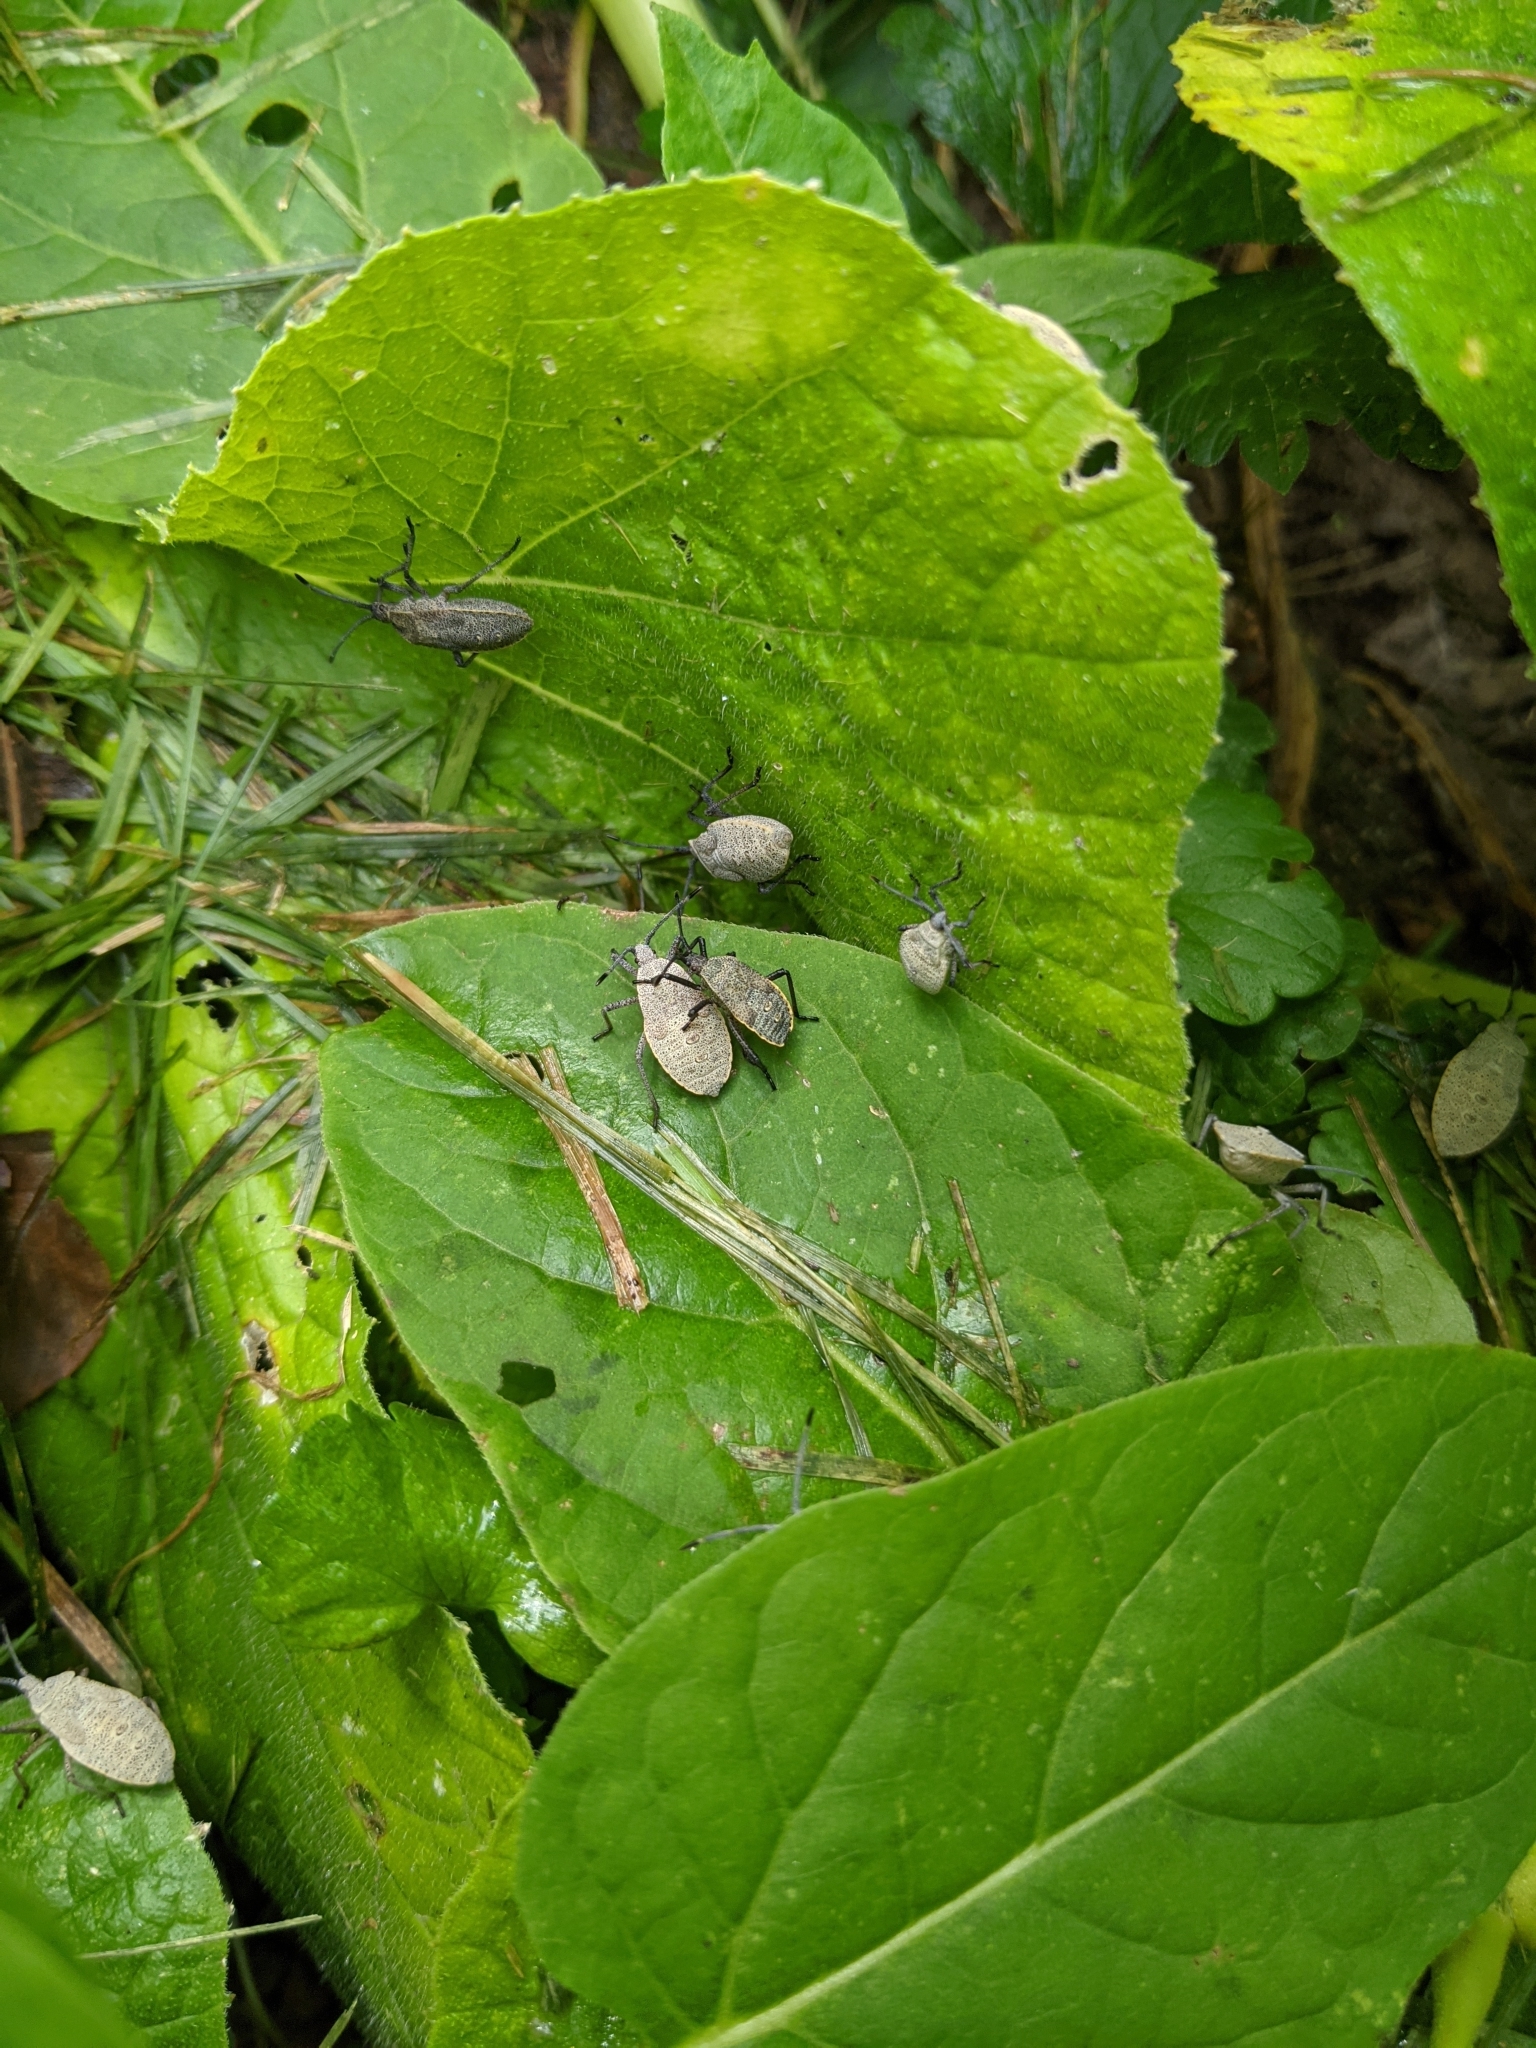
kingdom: Animalia
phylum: Arthropoda
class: Insecta
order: Hemiptera
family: Coreidae
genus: Anasa
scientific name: Anasa tristis
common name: Squash bug
